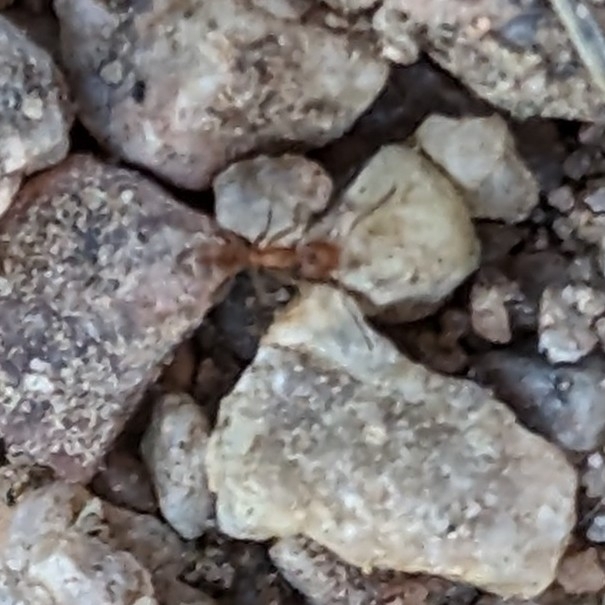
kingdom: Animalia
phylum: Arthropoda
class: Insecta
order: Hymenoptera
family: Formicidae
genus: Forelius
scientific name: Forelius
